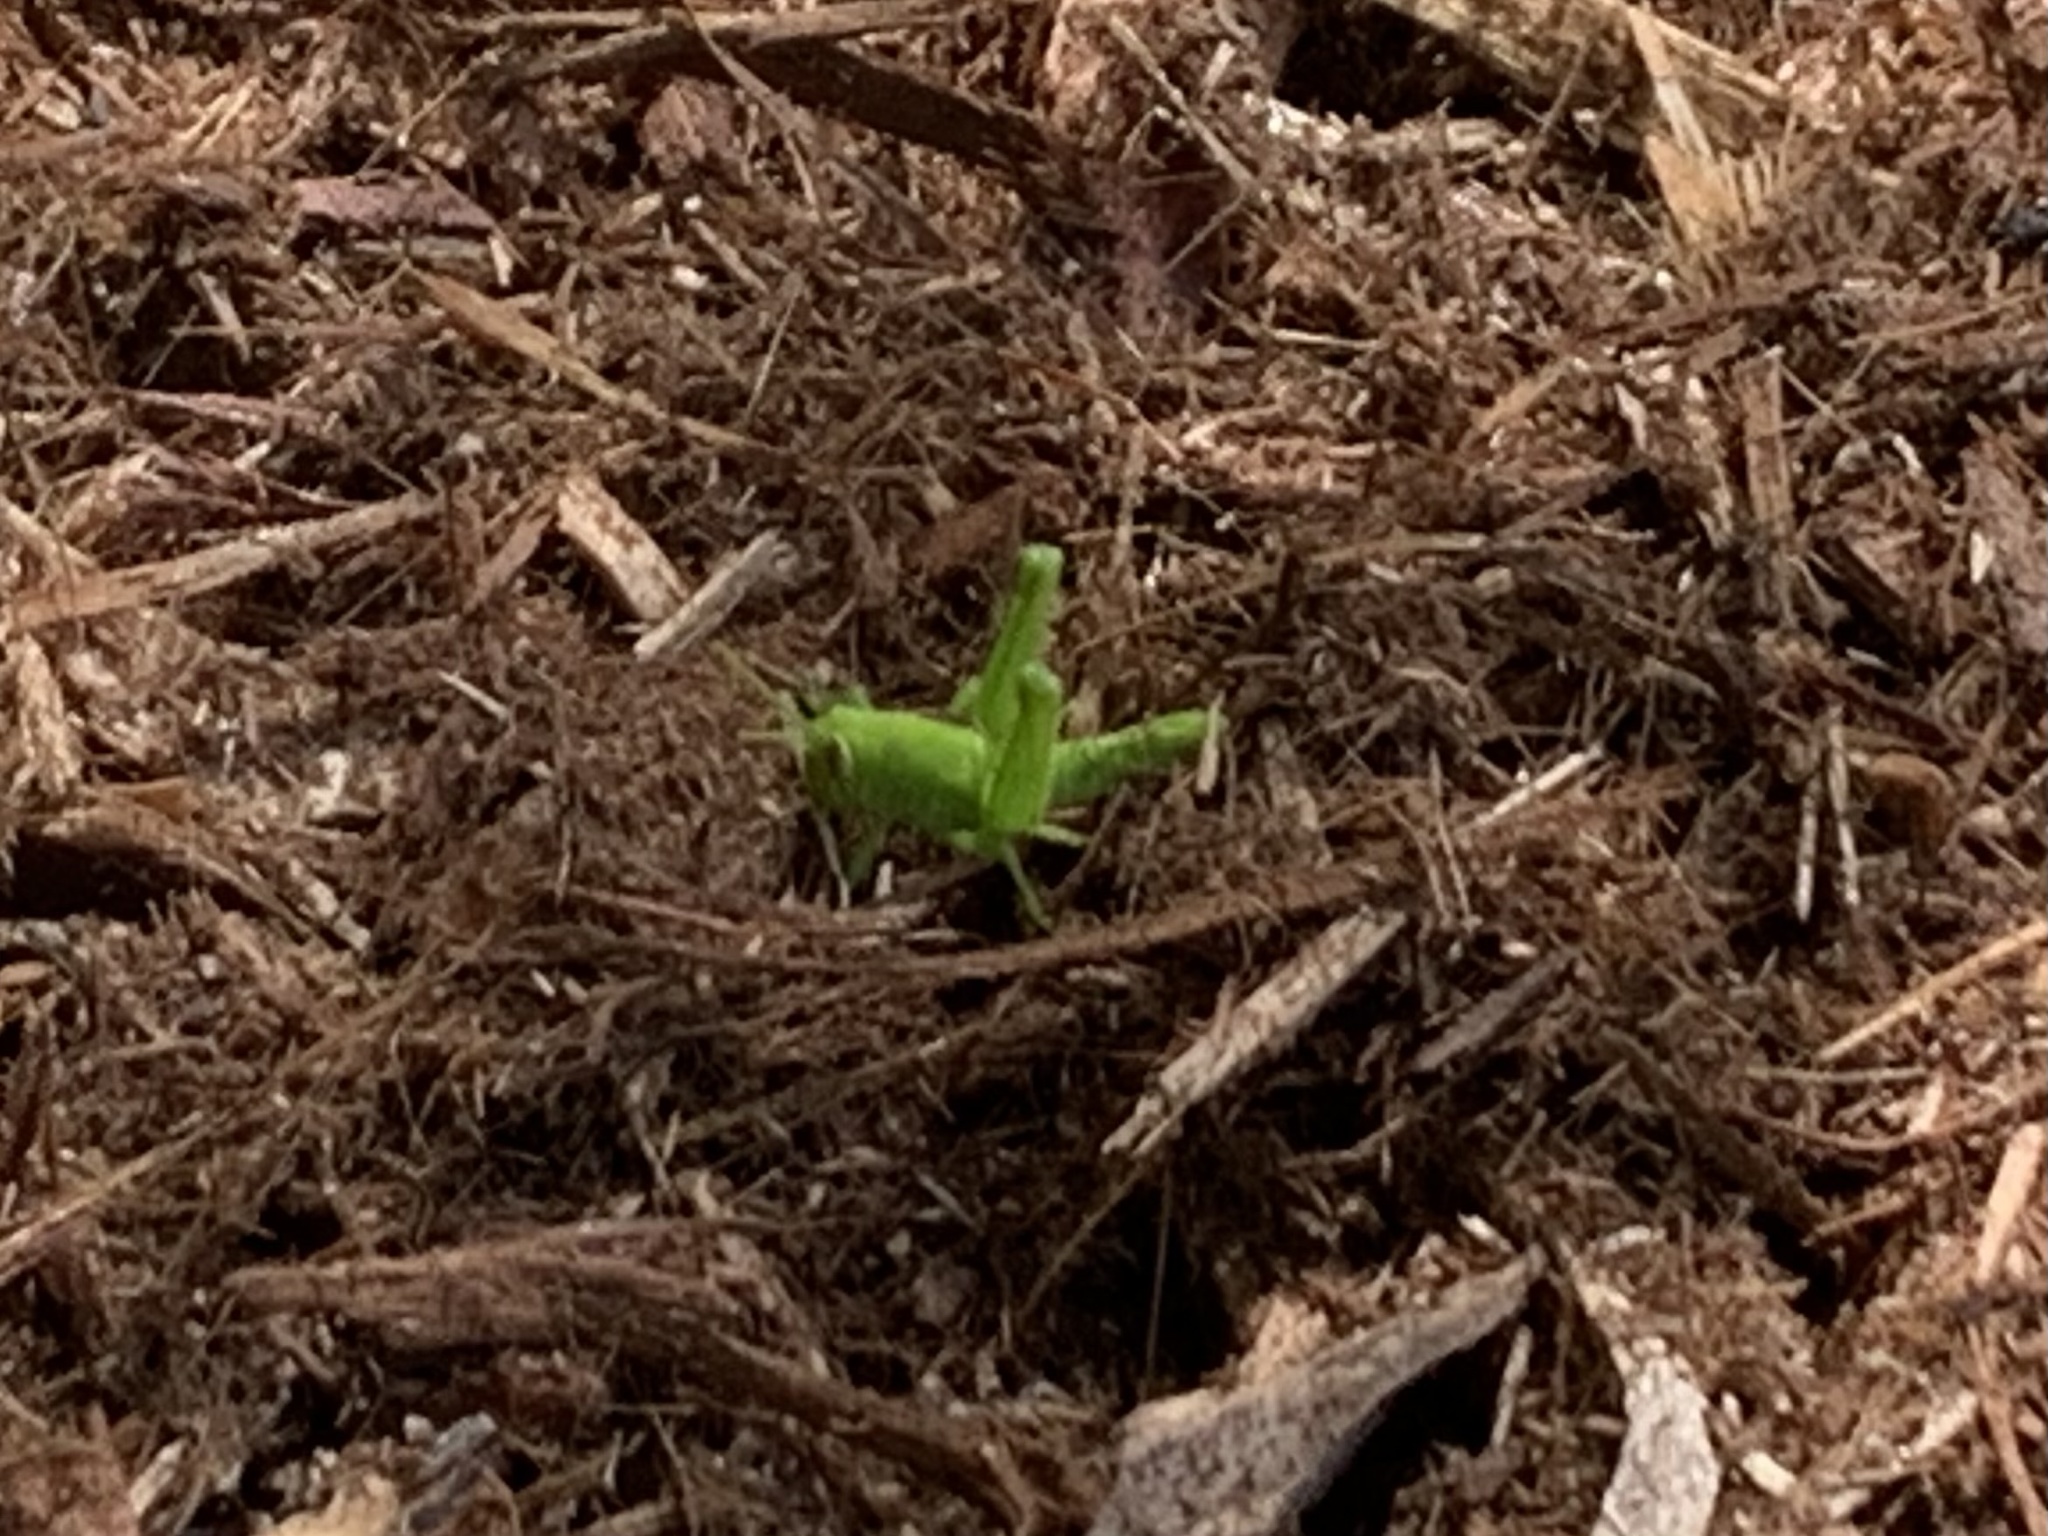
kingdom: Animalia
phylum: Arthropoda
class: Insecta
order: Orthoptera
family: Acrididae
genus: Schistocerca
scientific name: Schistocerca nitens
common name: Vagrant grasshopper
